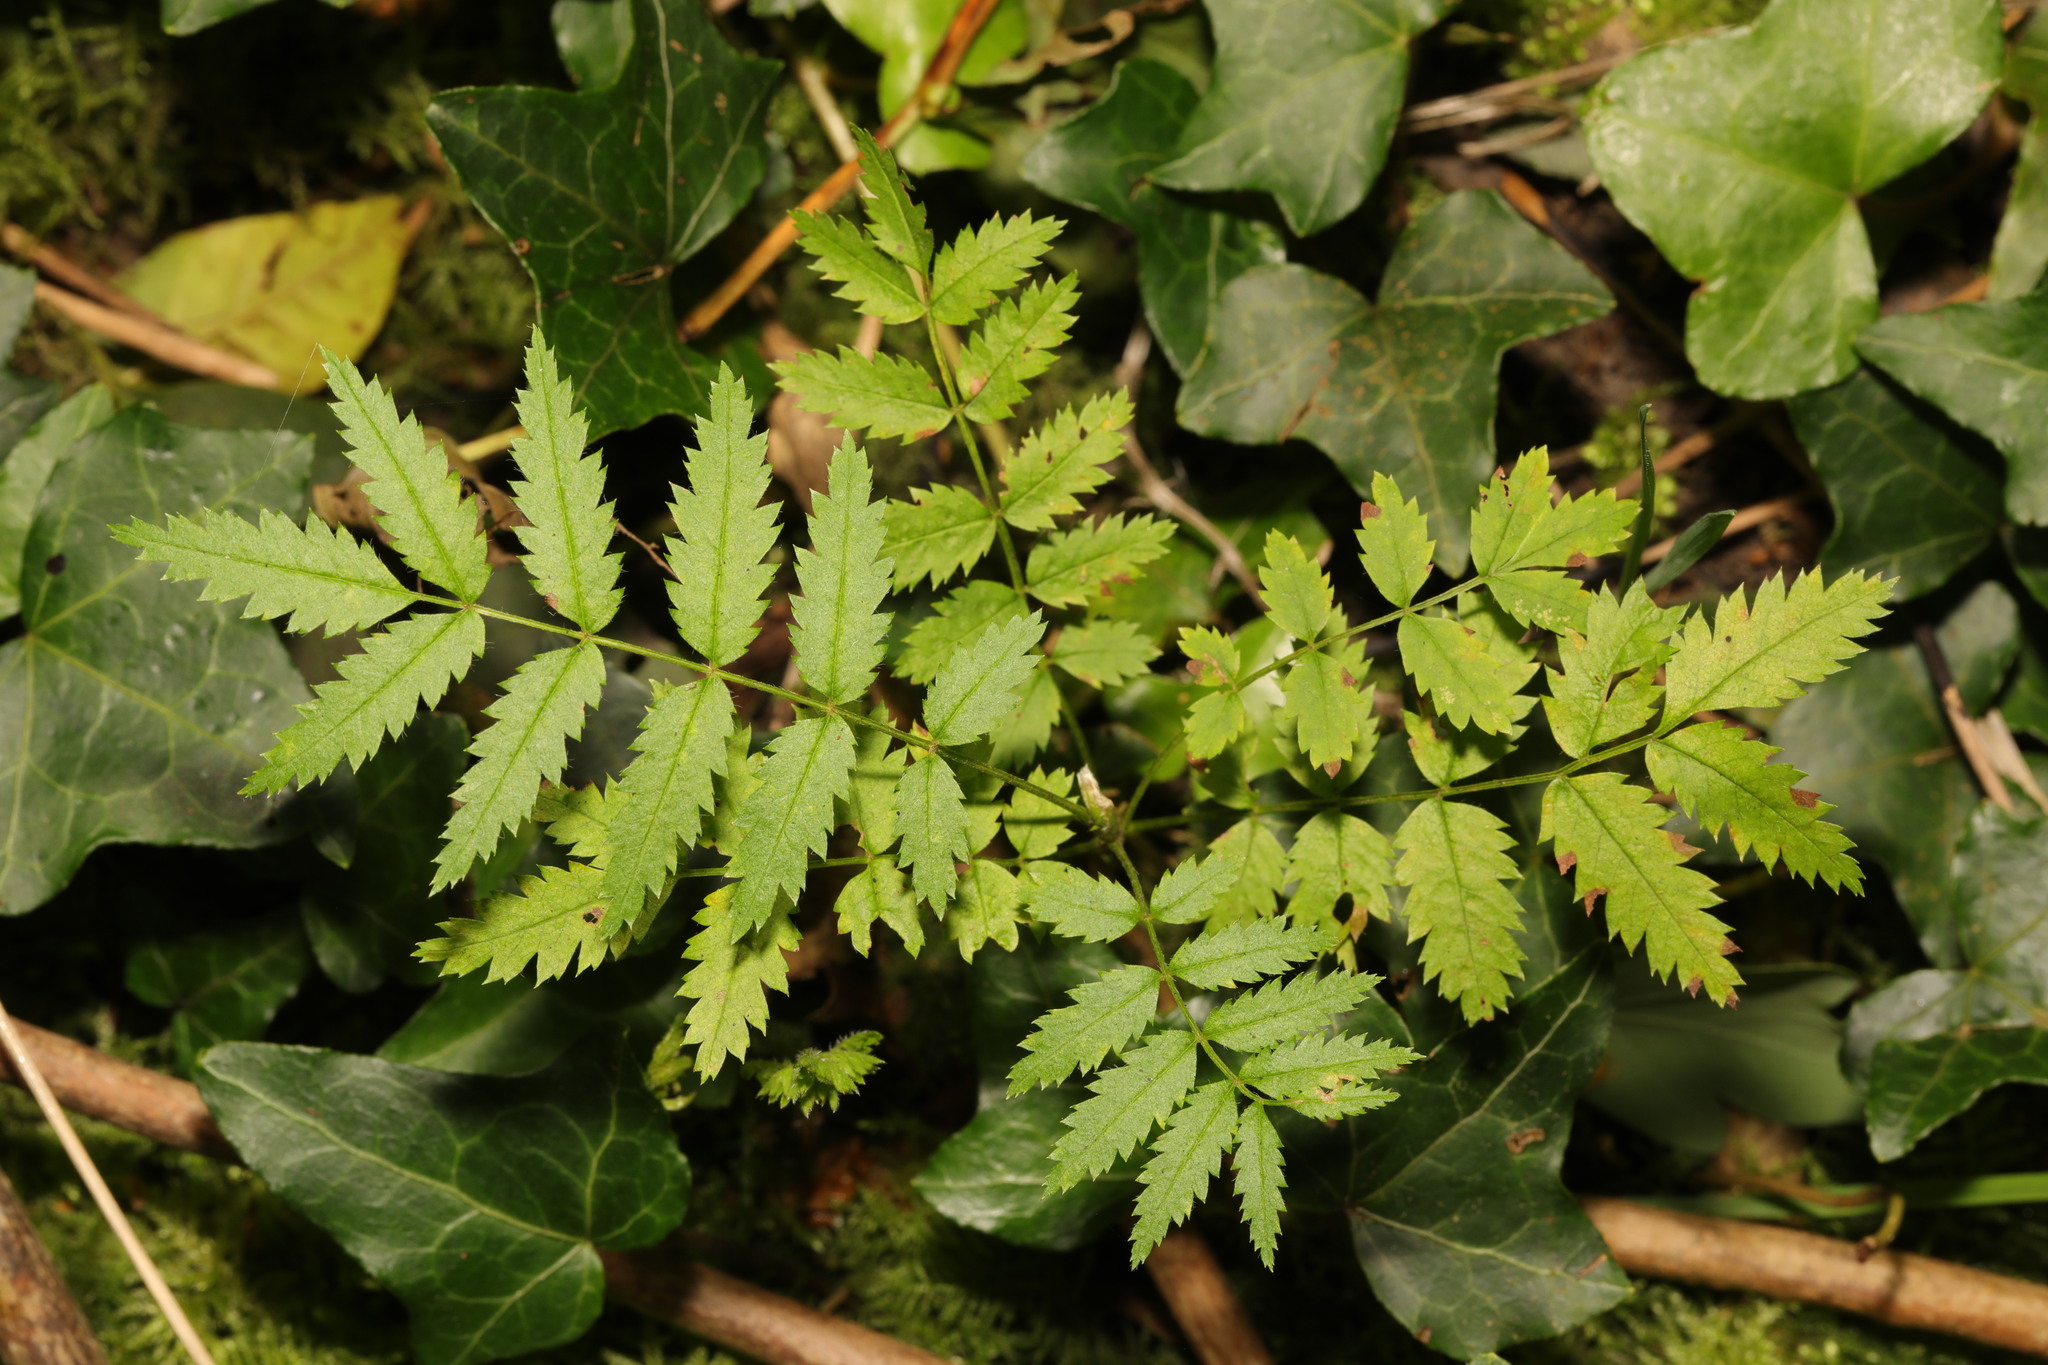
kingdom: Plantae
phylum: Tracheophyta
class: Magnoliopsida
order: Rosales
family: Rosaceae
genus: Sorbus
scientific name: Sorbus aucuparia
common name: Rowan
